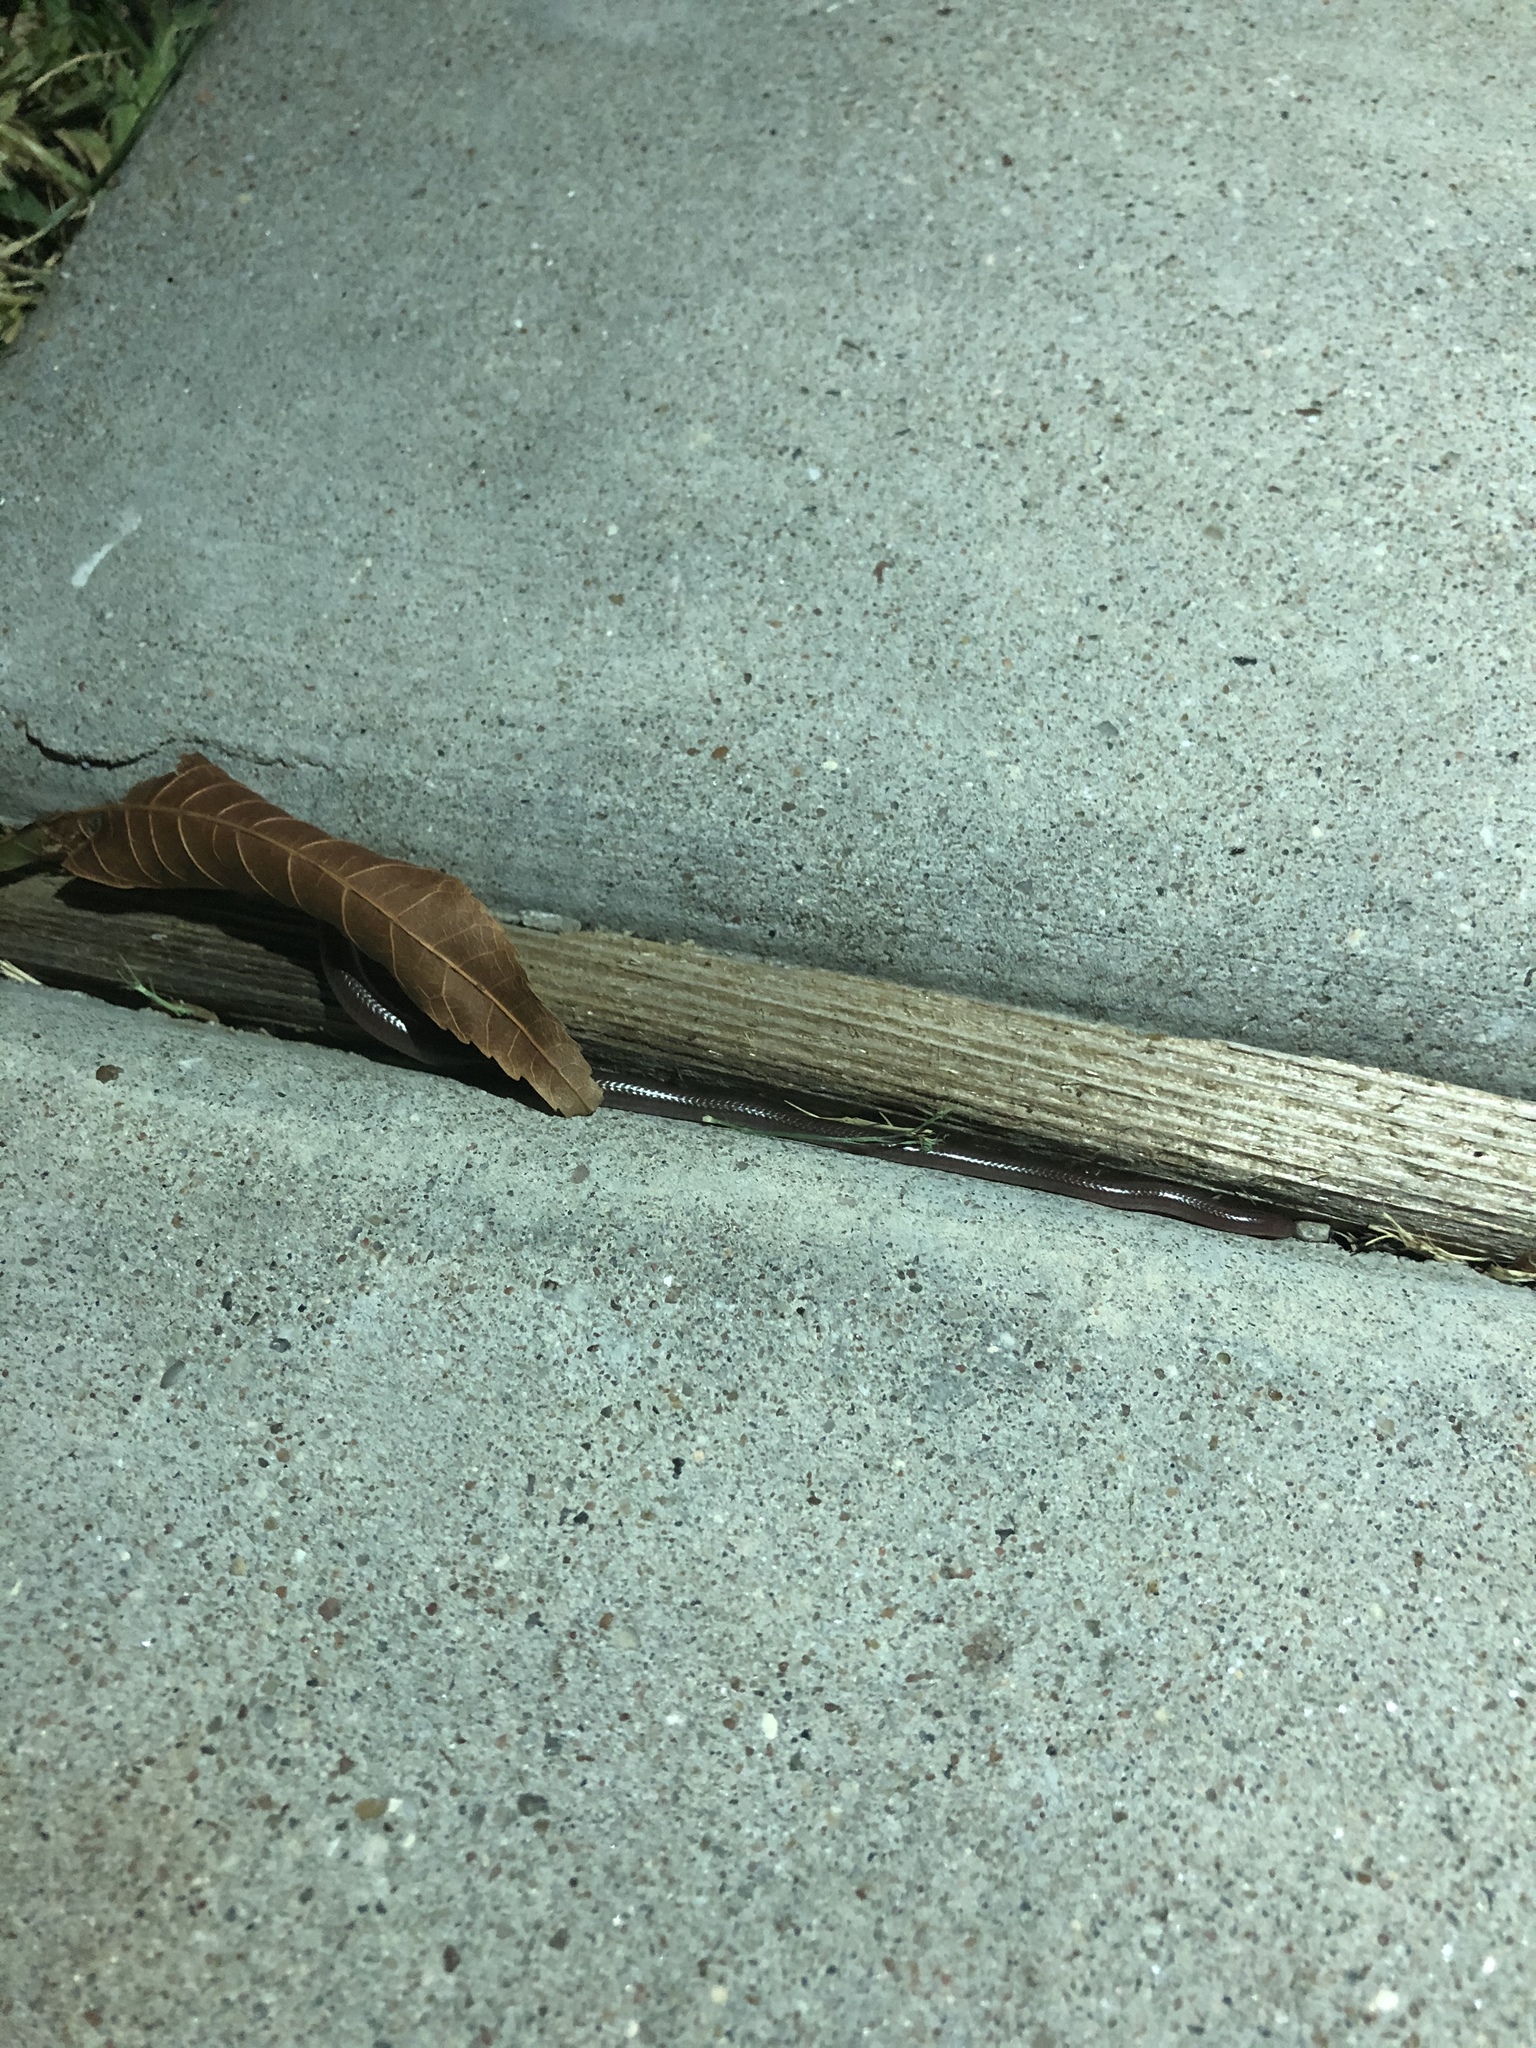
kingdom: Animalia
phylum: Chordata
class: Squamata
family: Leptotyphlopidae
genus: Rena
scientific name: Rena dulcis
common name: Texas blind snake
